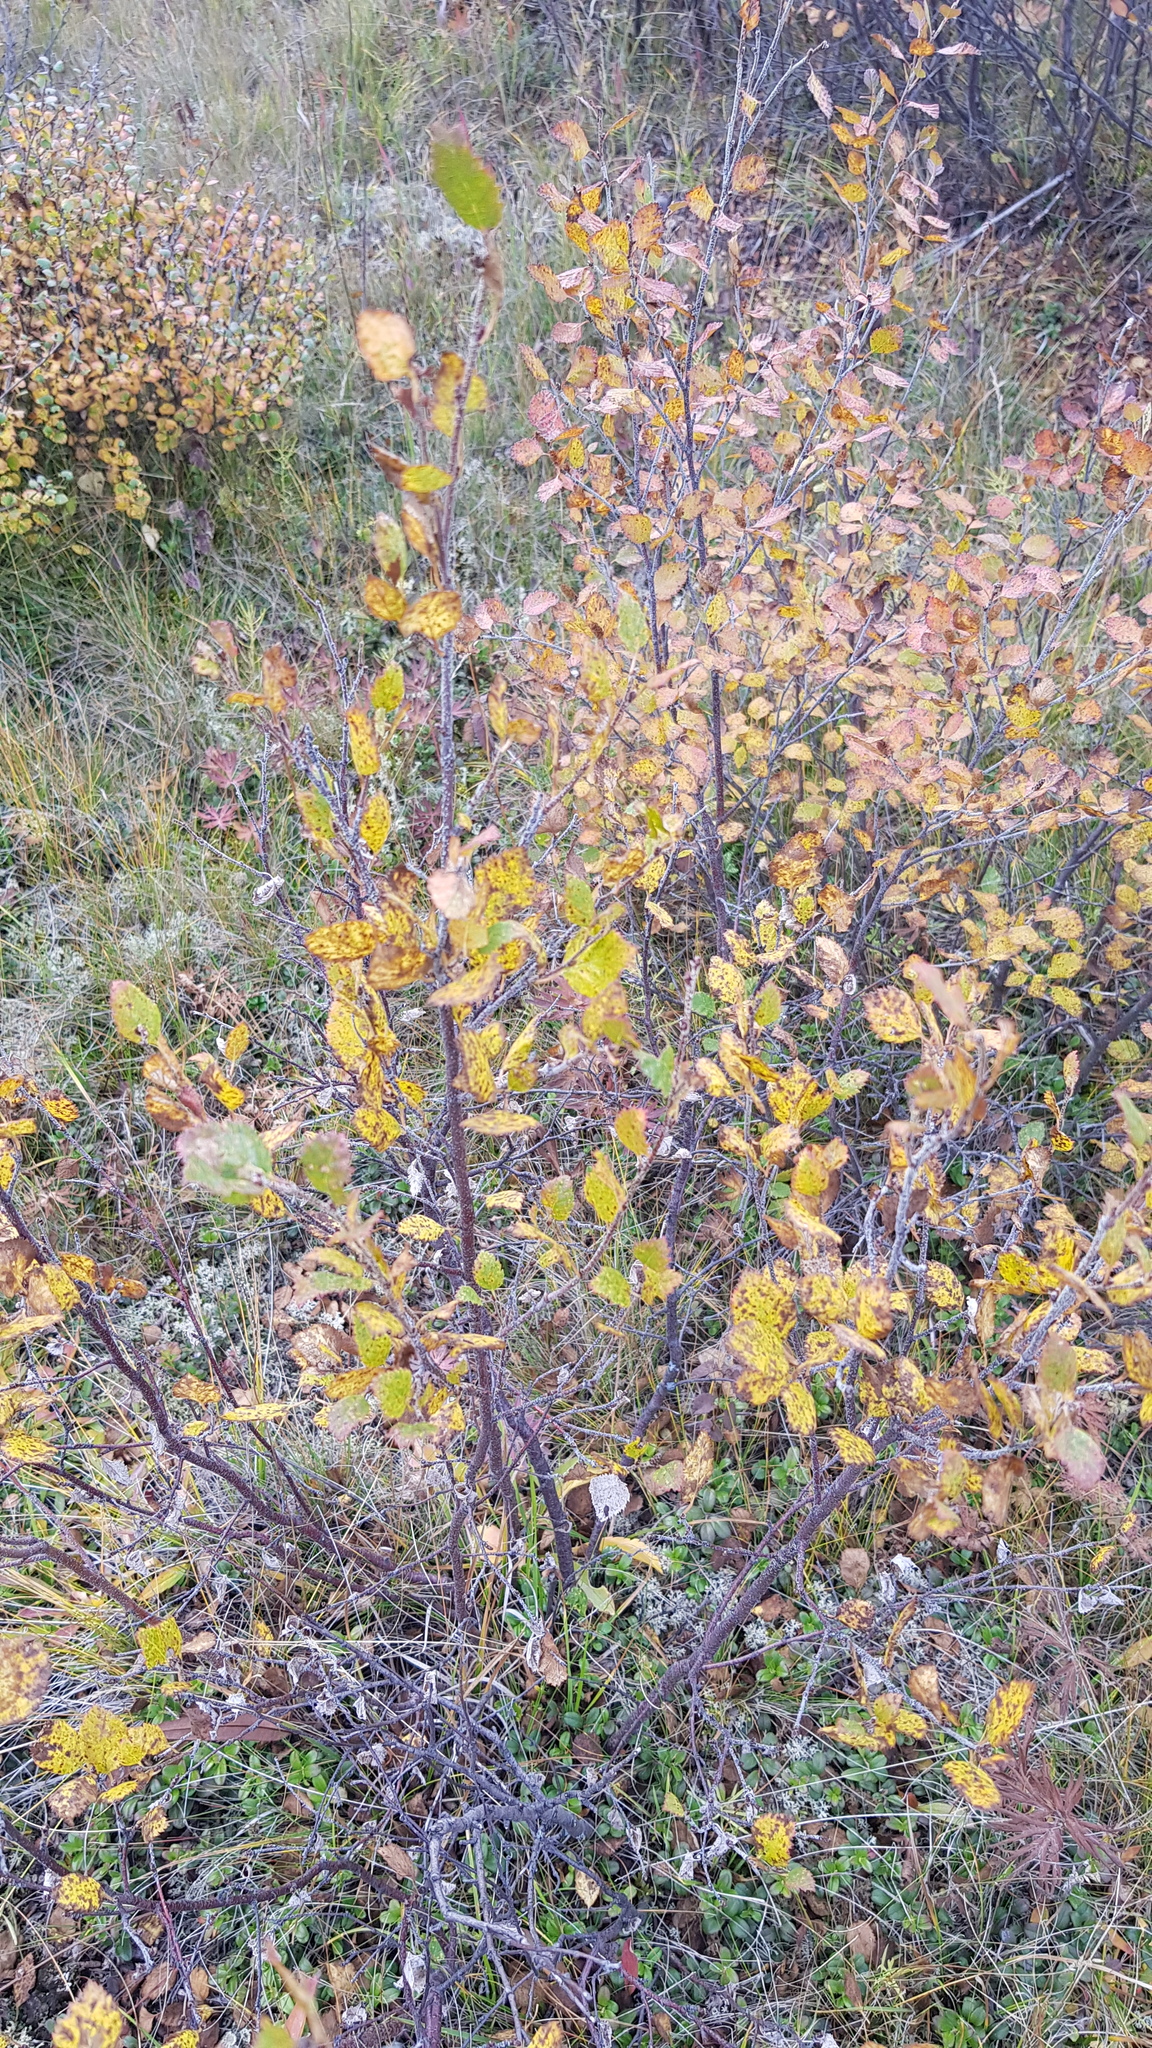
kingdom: Plantae
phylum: Tracheophyta
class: Magnoliopsida
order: Fagales
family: Betulaceae
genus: Betula
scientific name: Betula fruticosa
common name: Japanese bog birch
